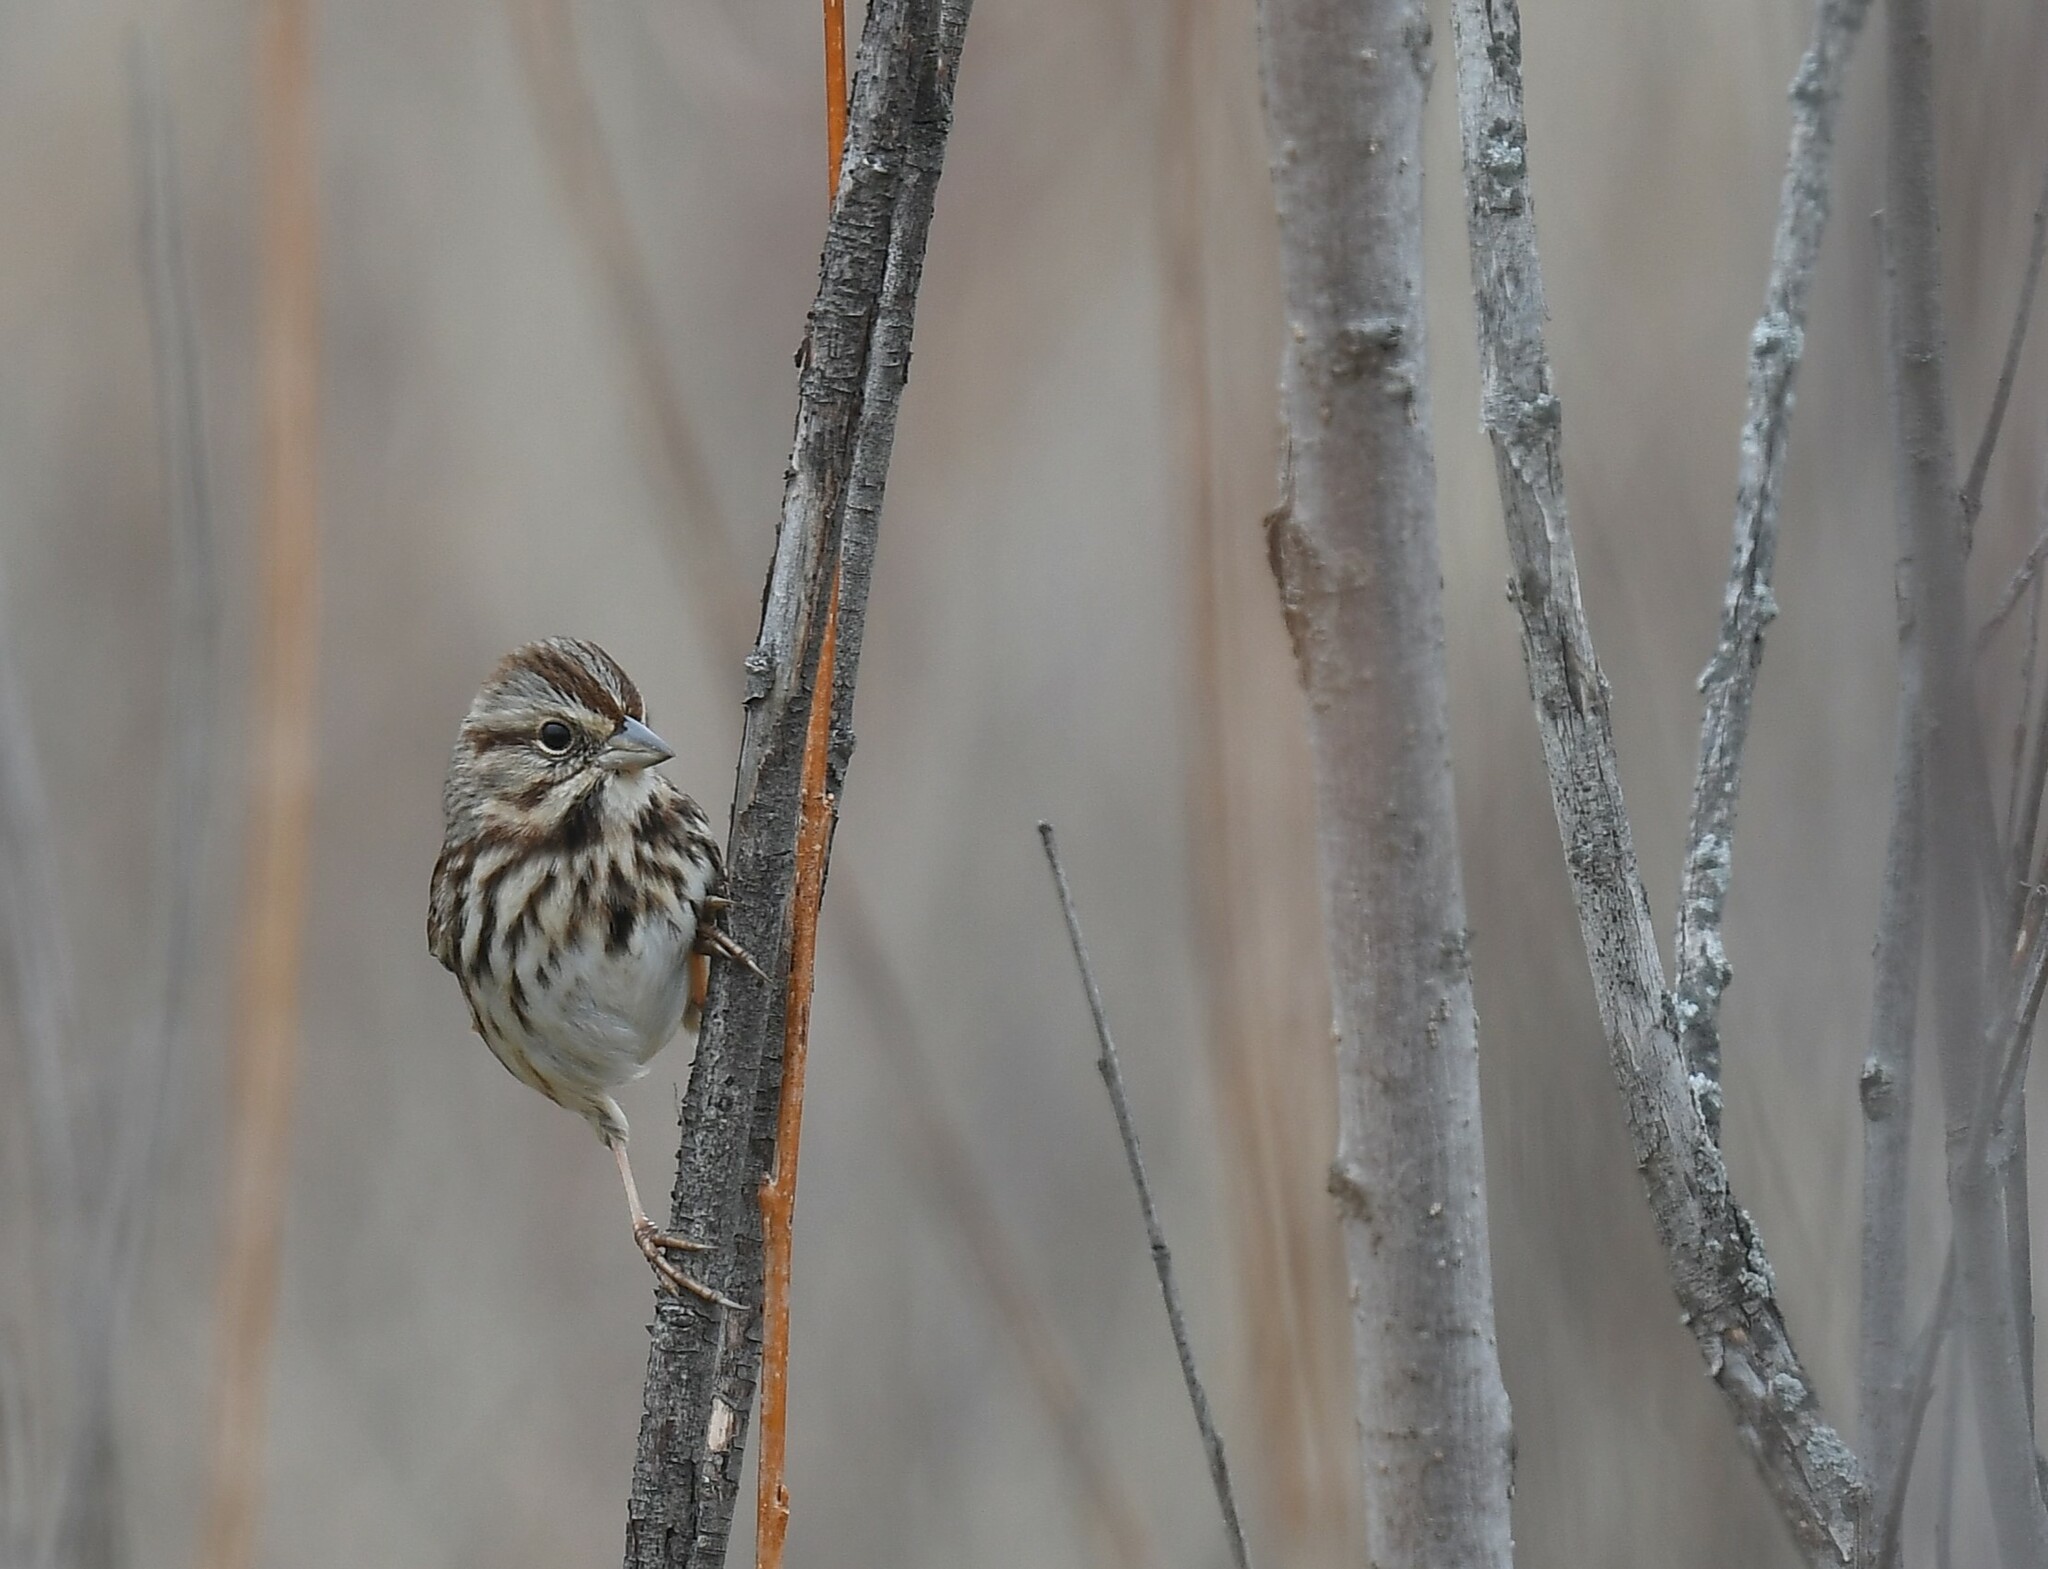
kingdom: Animalia
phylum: Chordata
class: Aves
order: Passeriformes
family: Passerellidae
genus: Melospiza
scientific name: Melospiza melodia
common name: Song sparrow
